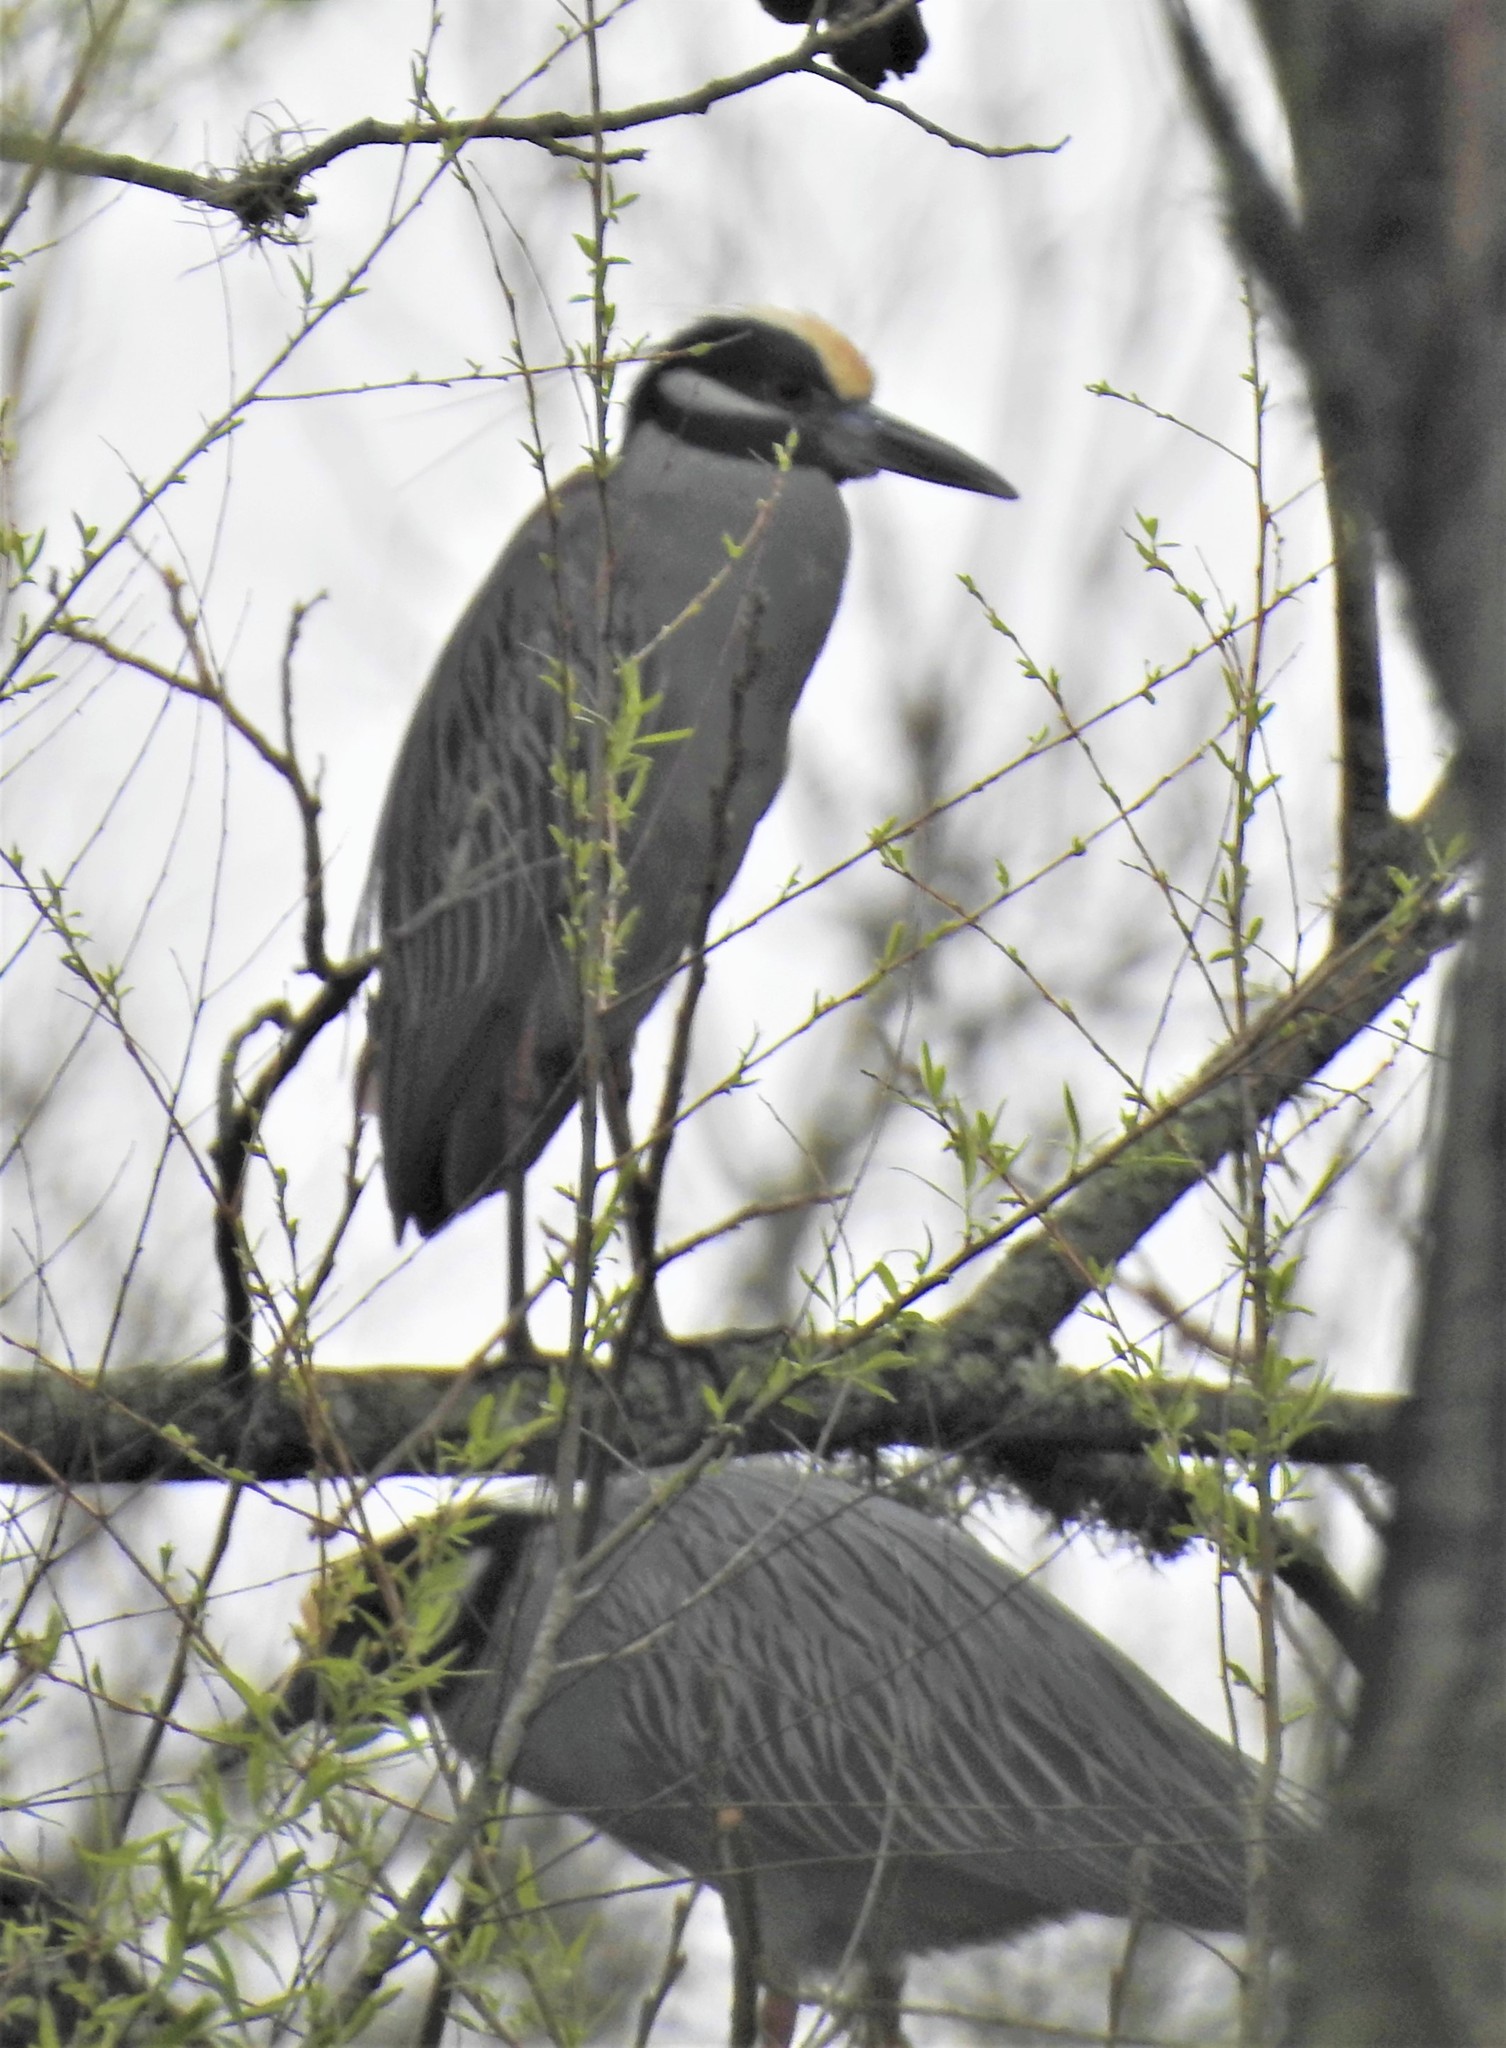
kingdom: Animalia
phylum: Chordata
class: Aves
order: Pelecaniformes
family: Ardeidae
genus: Nyctanassa
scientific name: Nyctanassa violacea
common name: Yellow-crowned night heron
